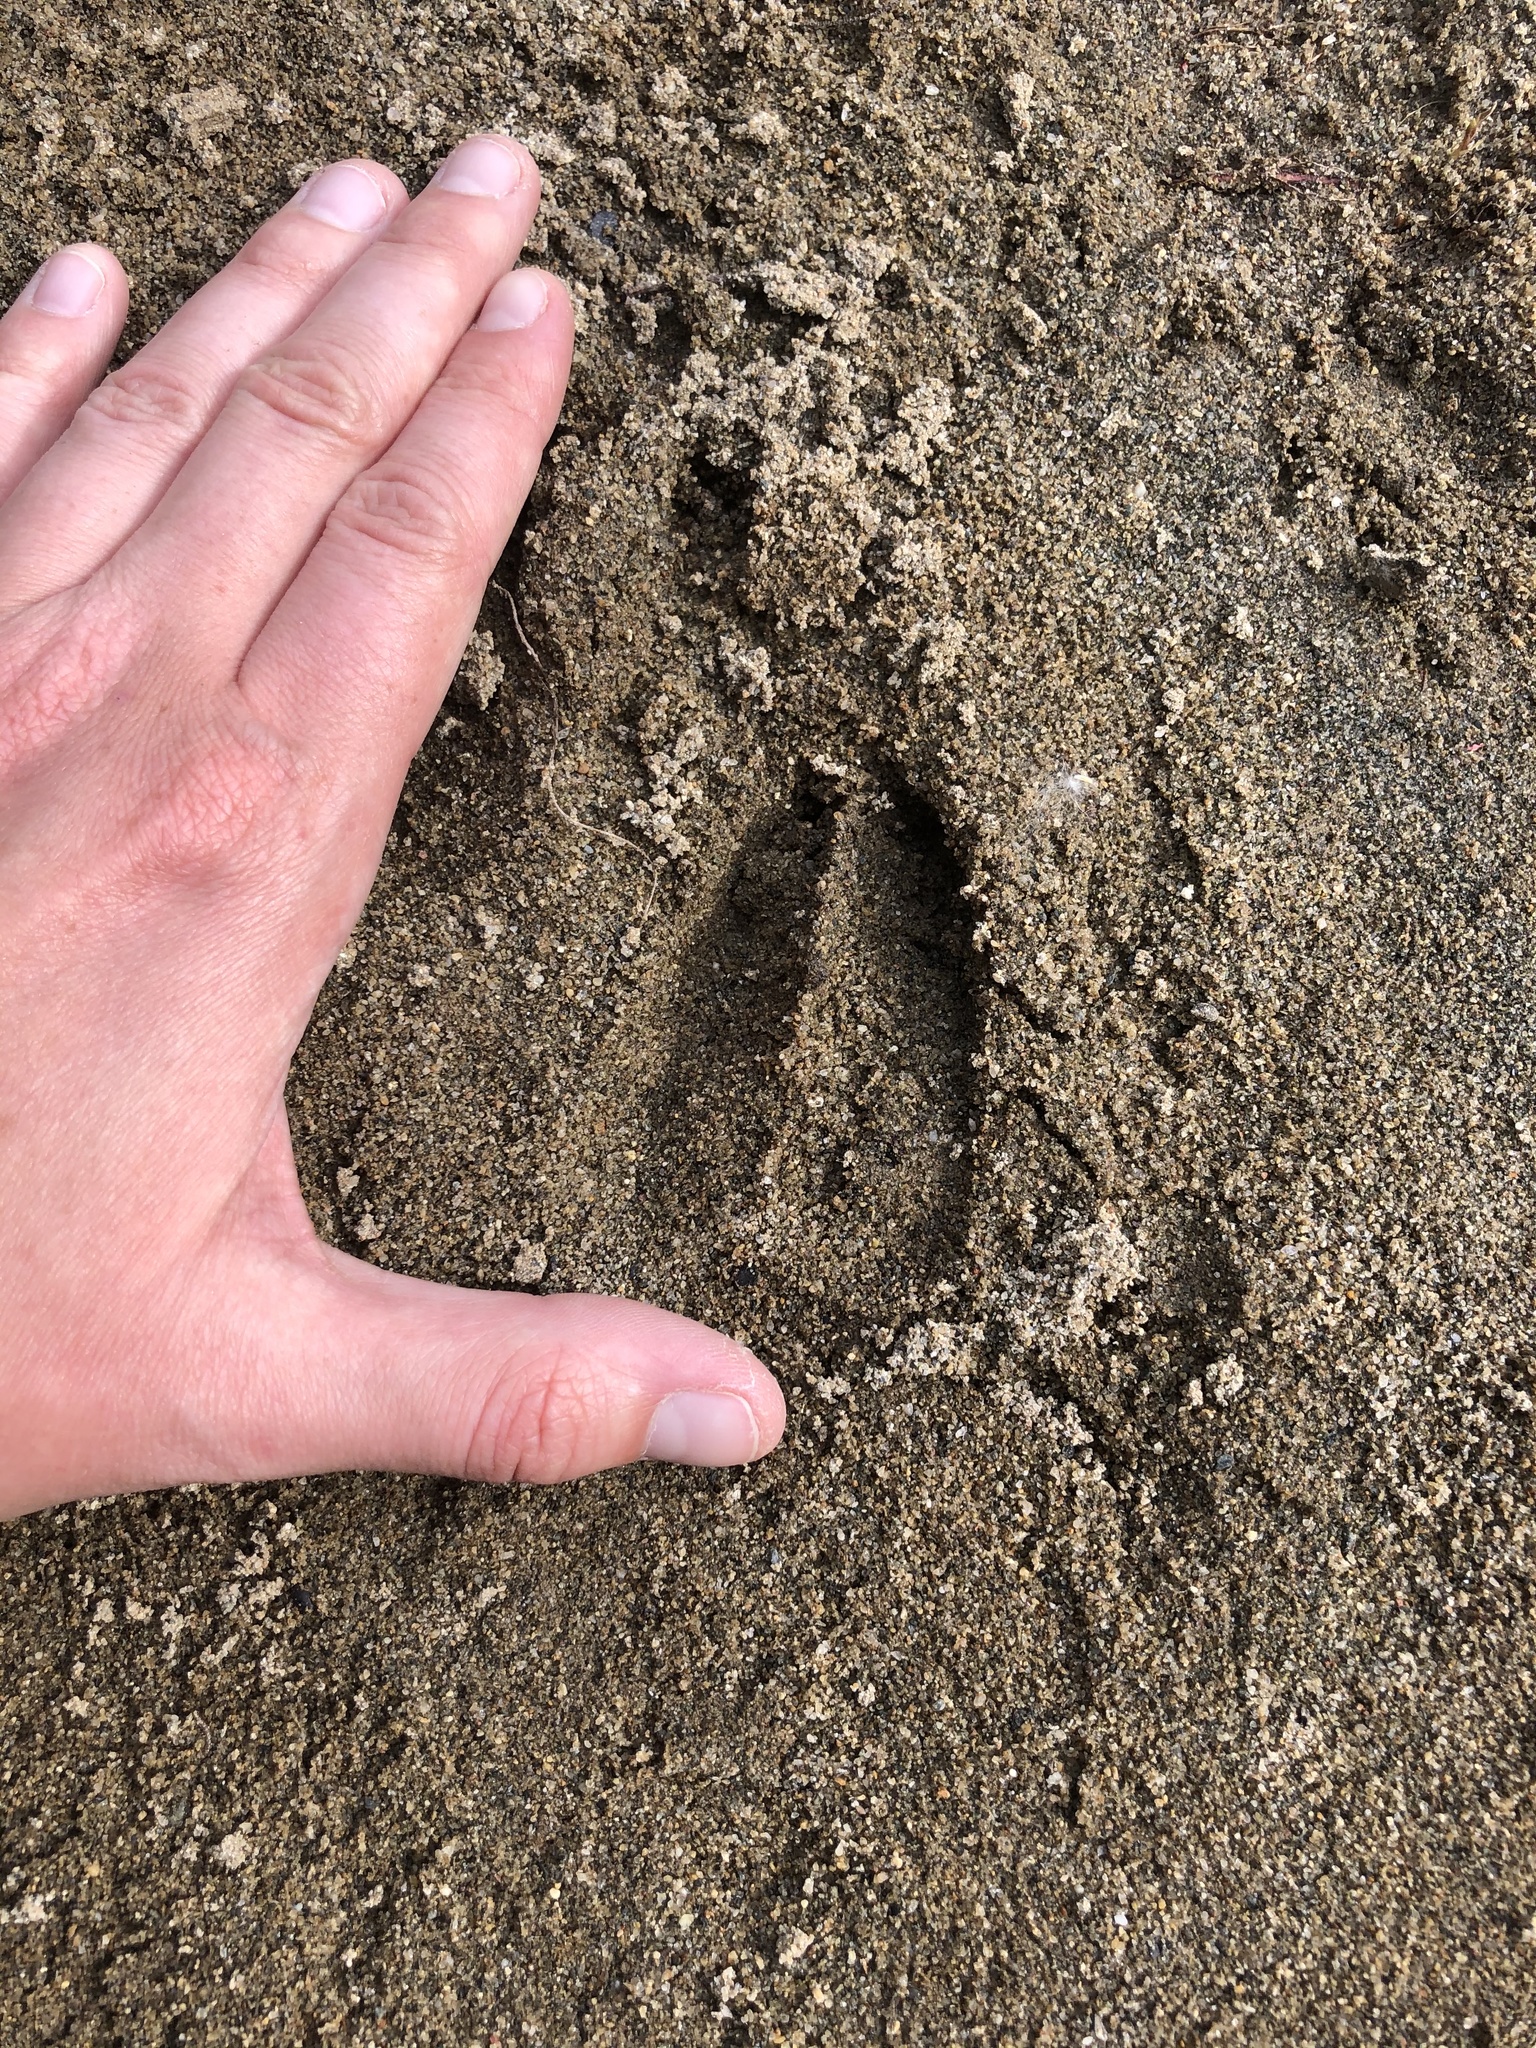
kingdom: Animalia
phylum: Chordata
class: Mammalia
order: Artiodactyla
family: Cervidae
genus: Odocoileus
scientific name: Odocoileus hemionus
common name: Mule deer
